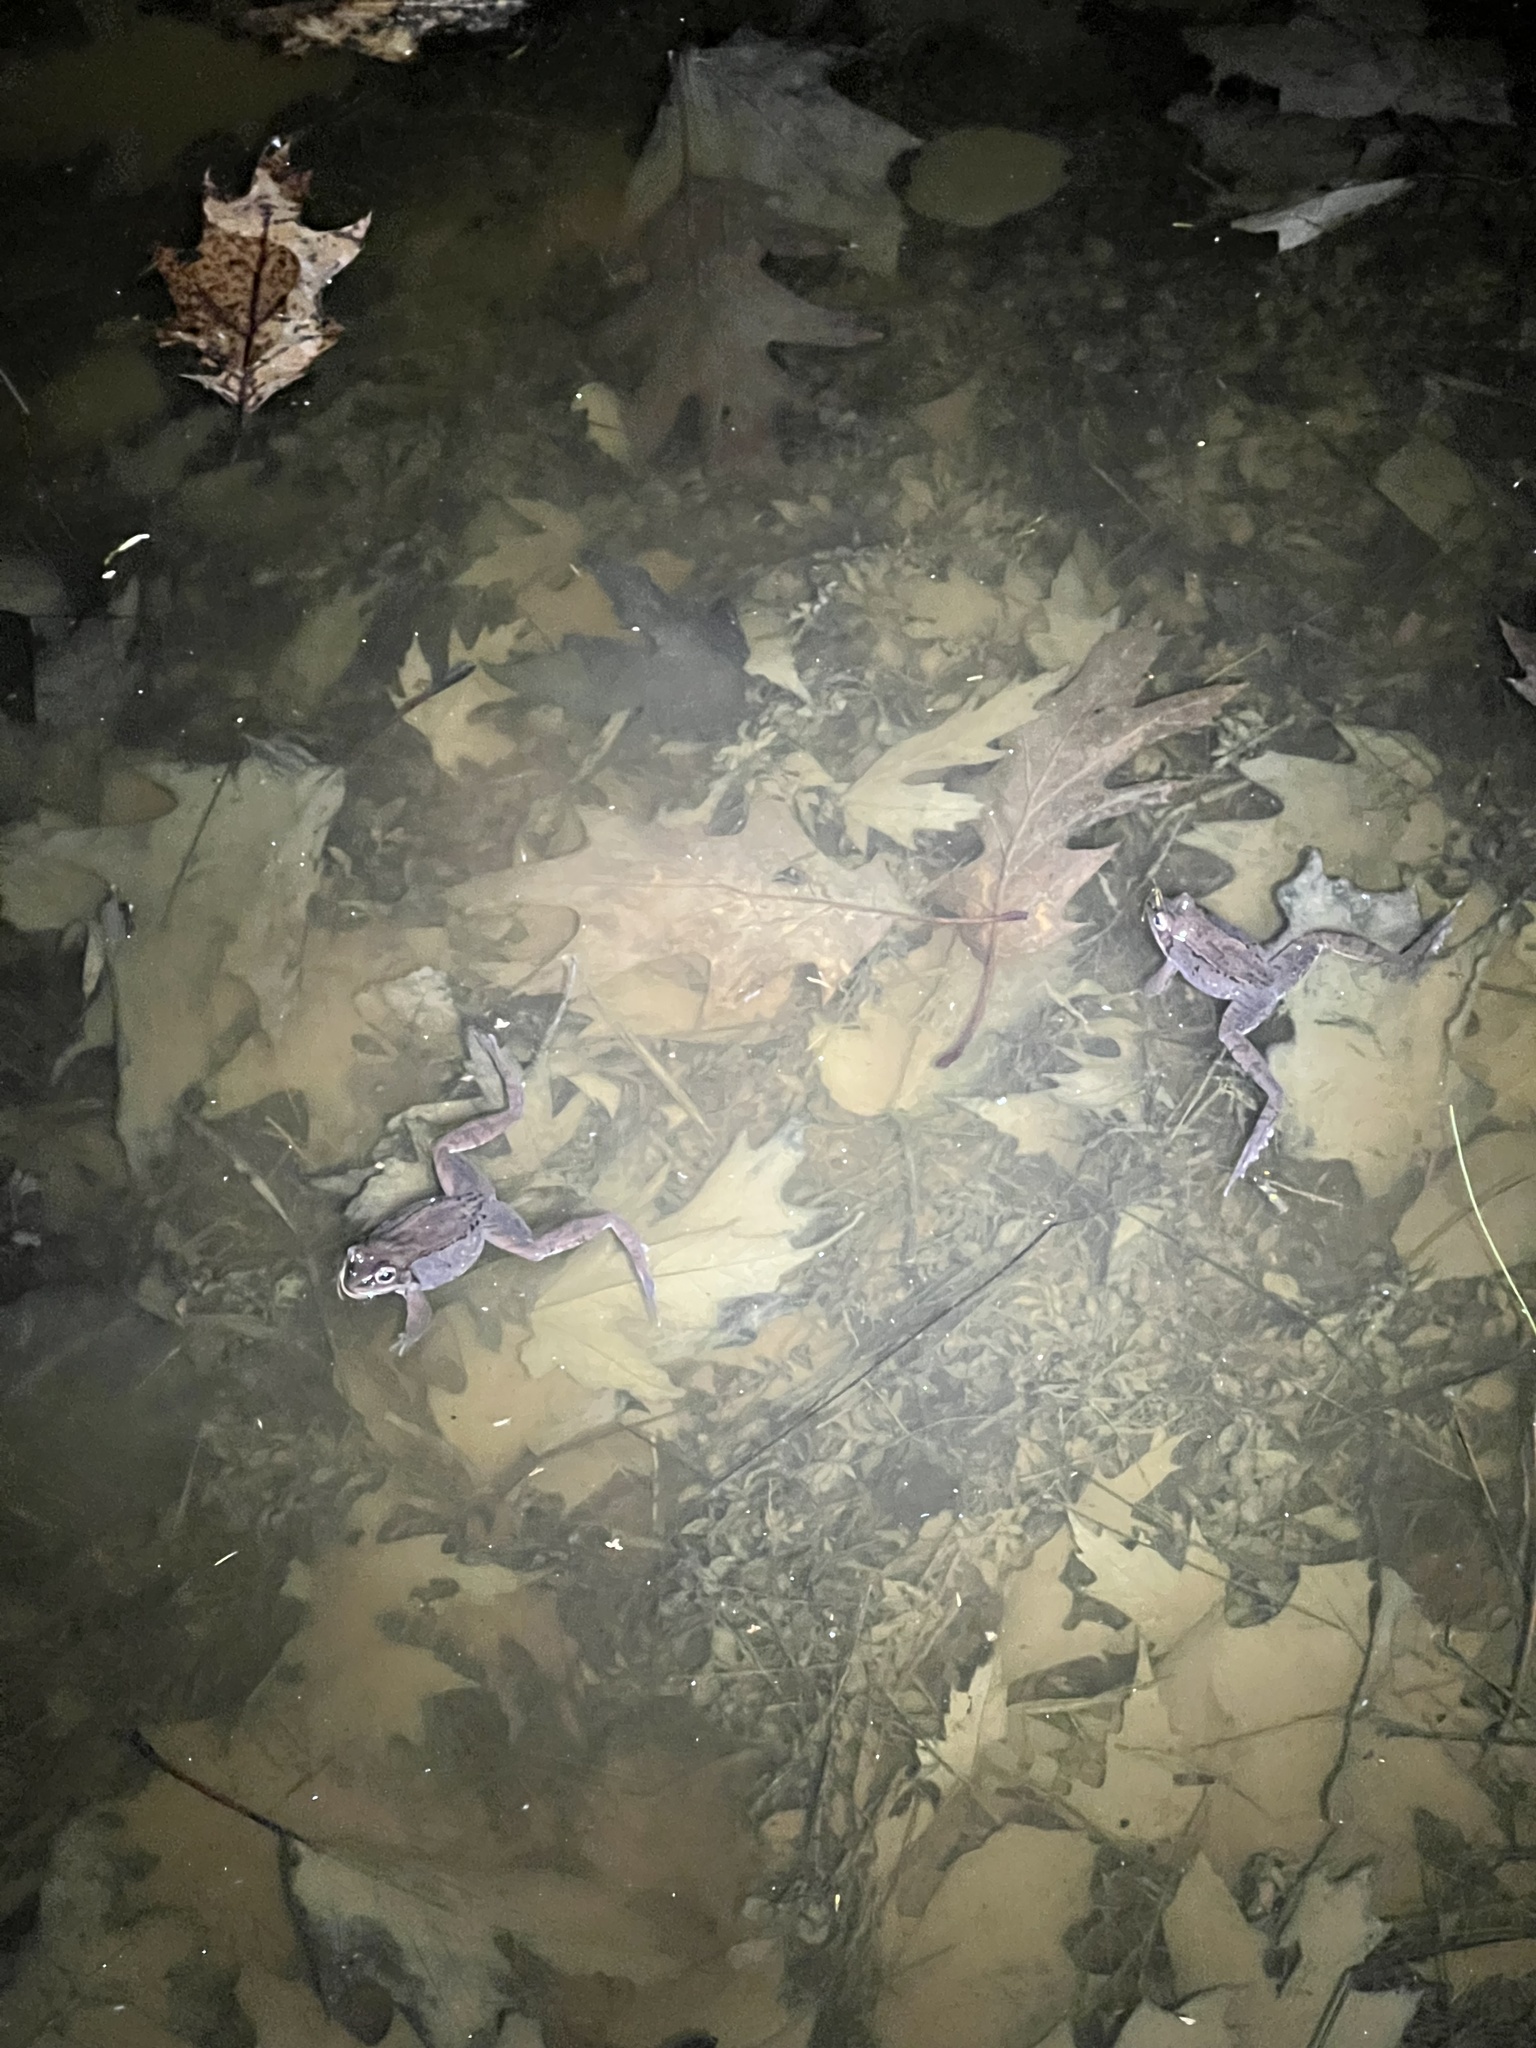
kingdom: Animalia
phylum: Chordata
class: Amphibia
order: Anura
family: Ranidae
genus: Lithobates
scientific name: Lithobates sylvaticus
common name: Wood frog
